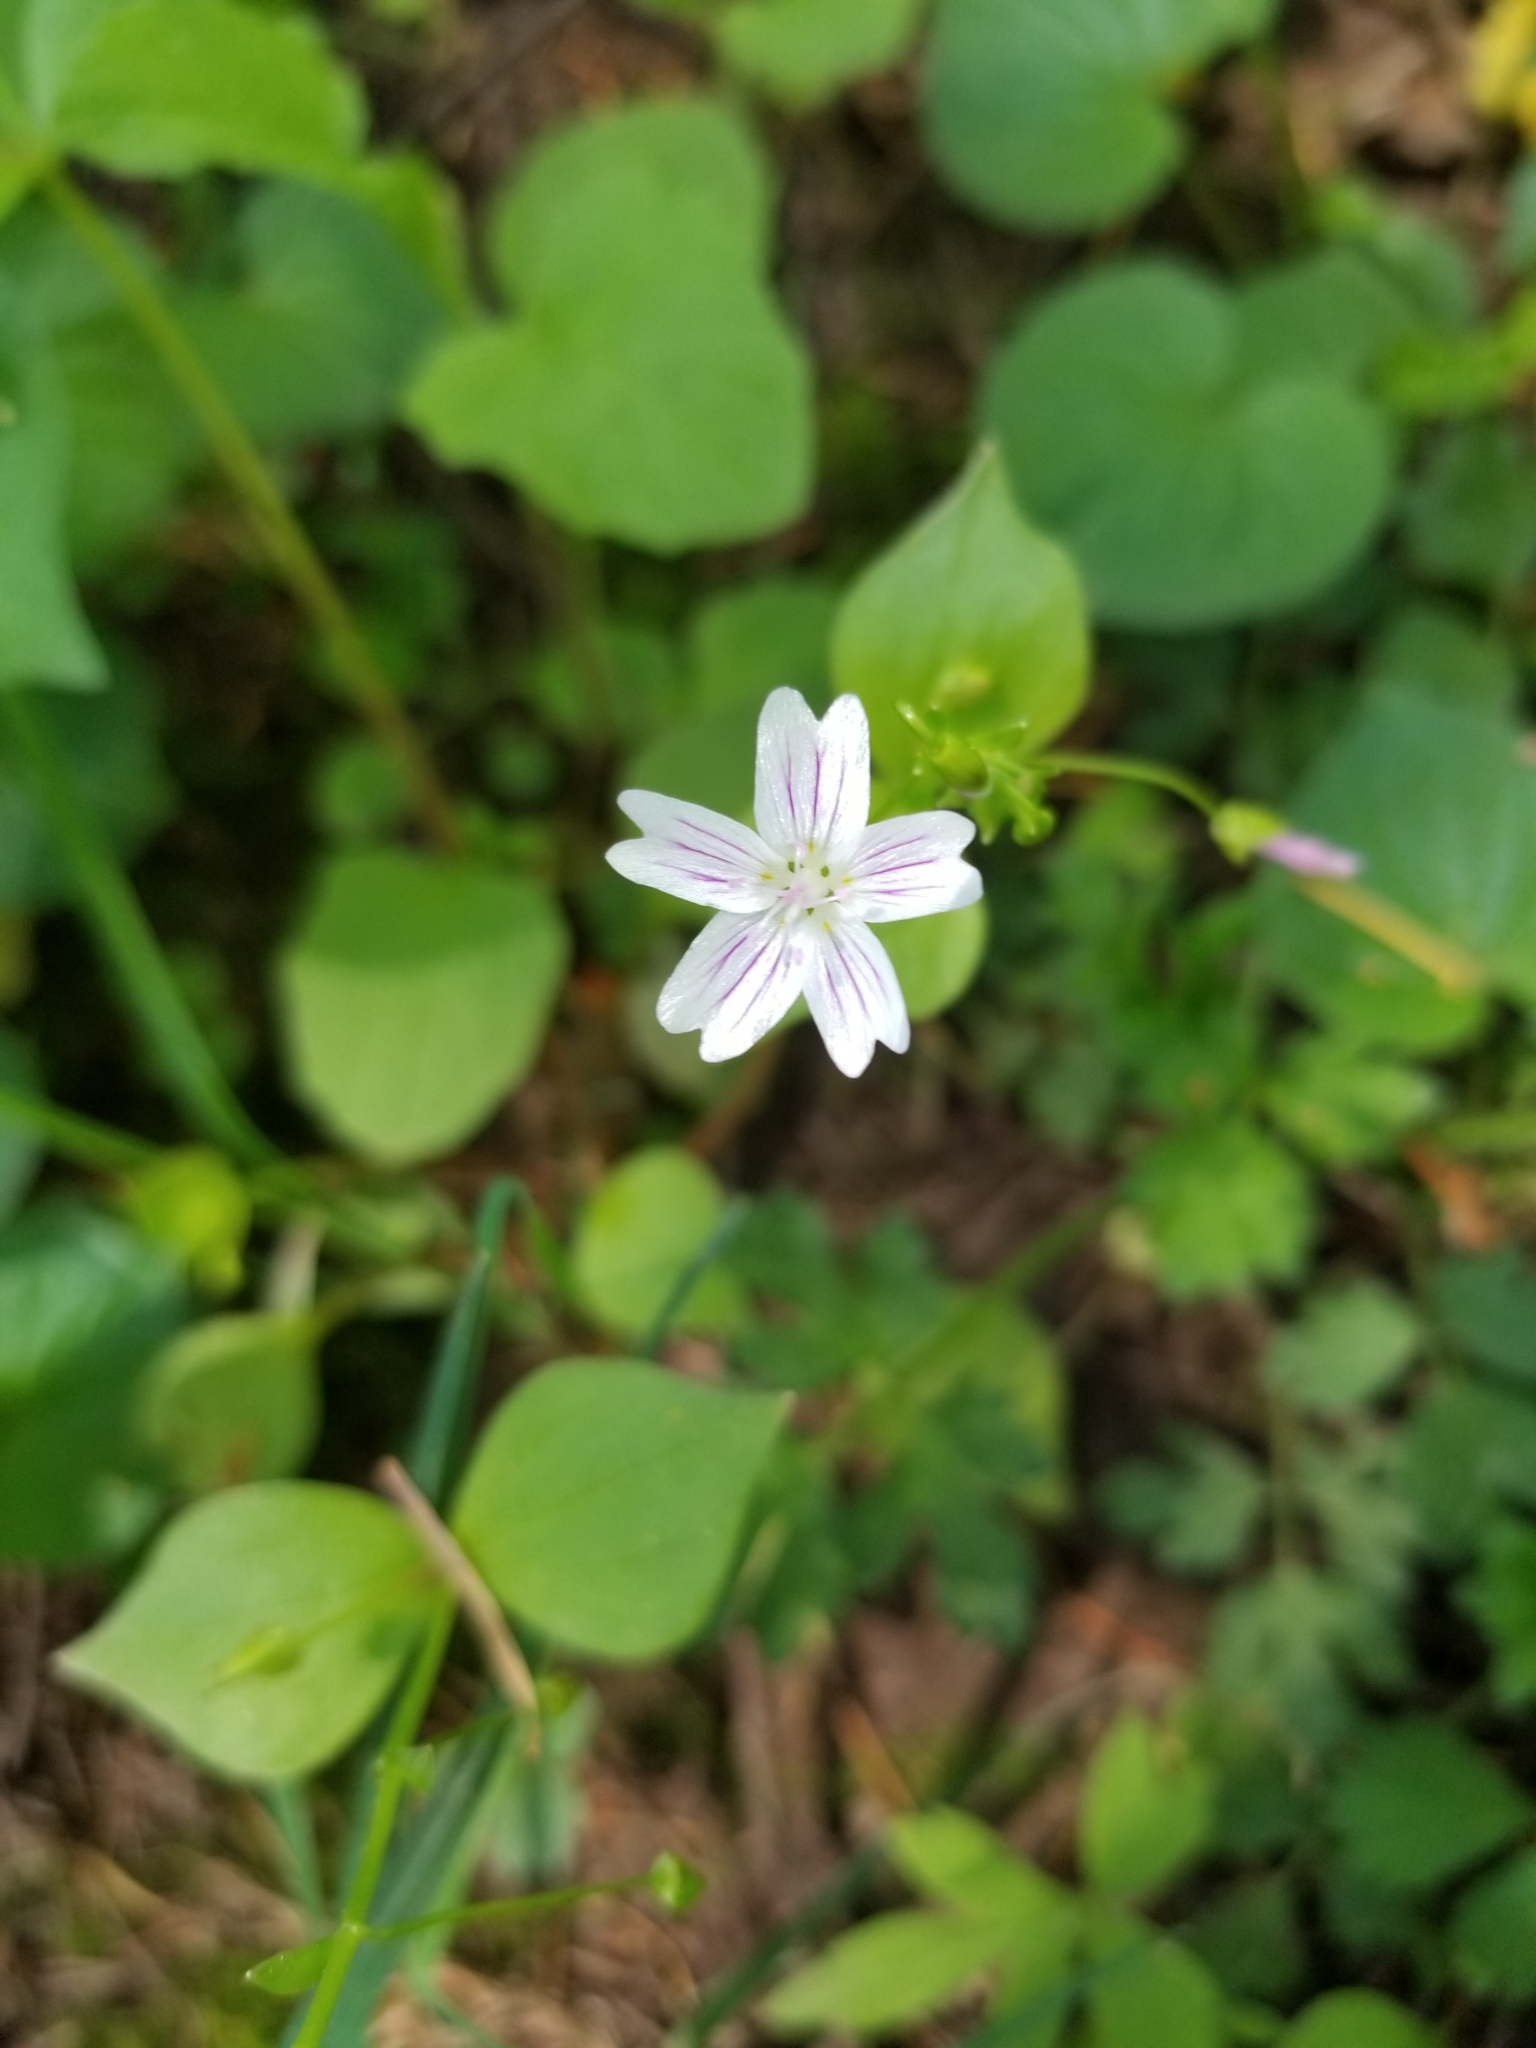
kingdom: Plantae
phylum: Tracheophyta
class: Magnoliopsida
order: Caryophyllales
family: Montiaceae
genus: Claytonia
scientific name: Claytonia sibirica
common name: Pink purslane
